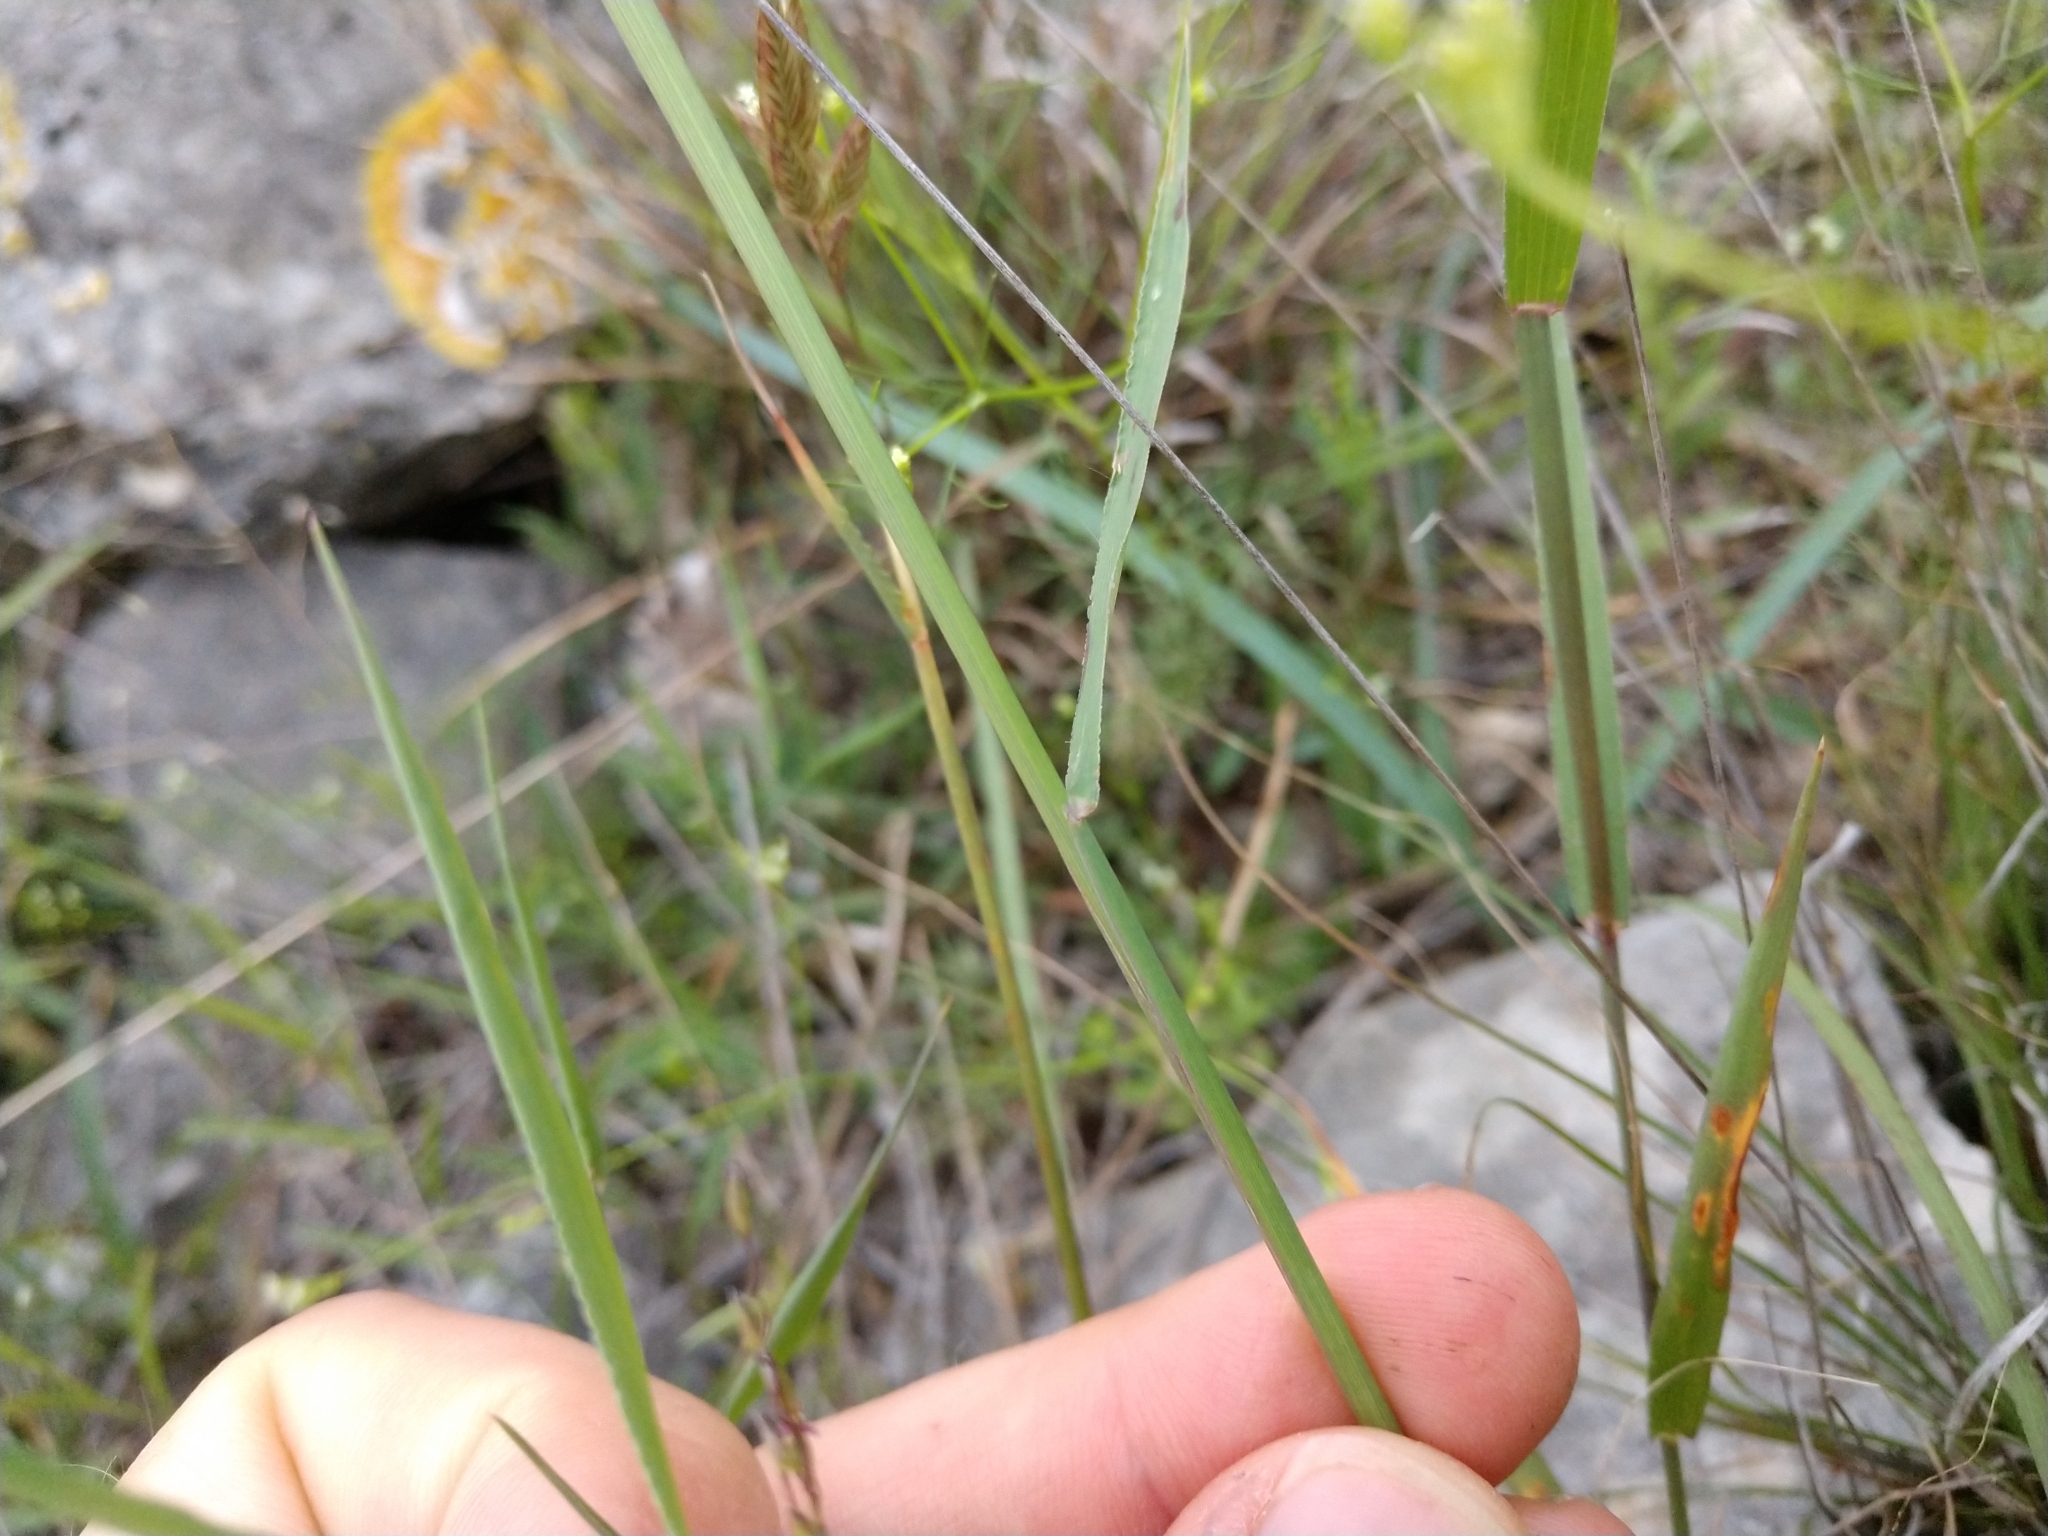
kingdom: Plantae
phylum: Tracheophyta
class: Liliopsida
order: Poales
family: Poaceae
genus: Digitaria
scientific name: Digitaria cognata
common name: Fall witchgrass
